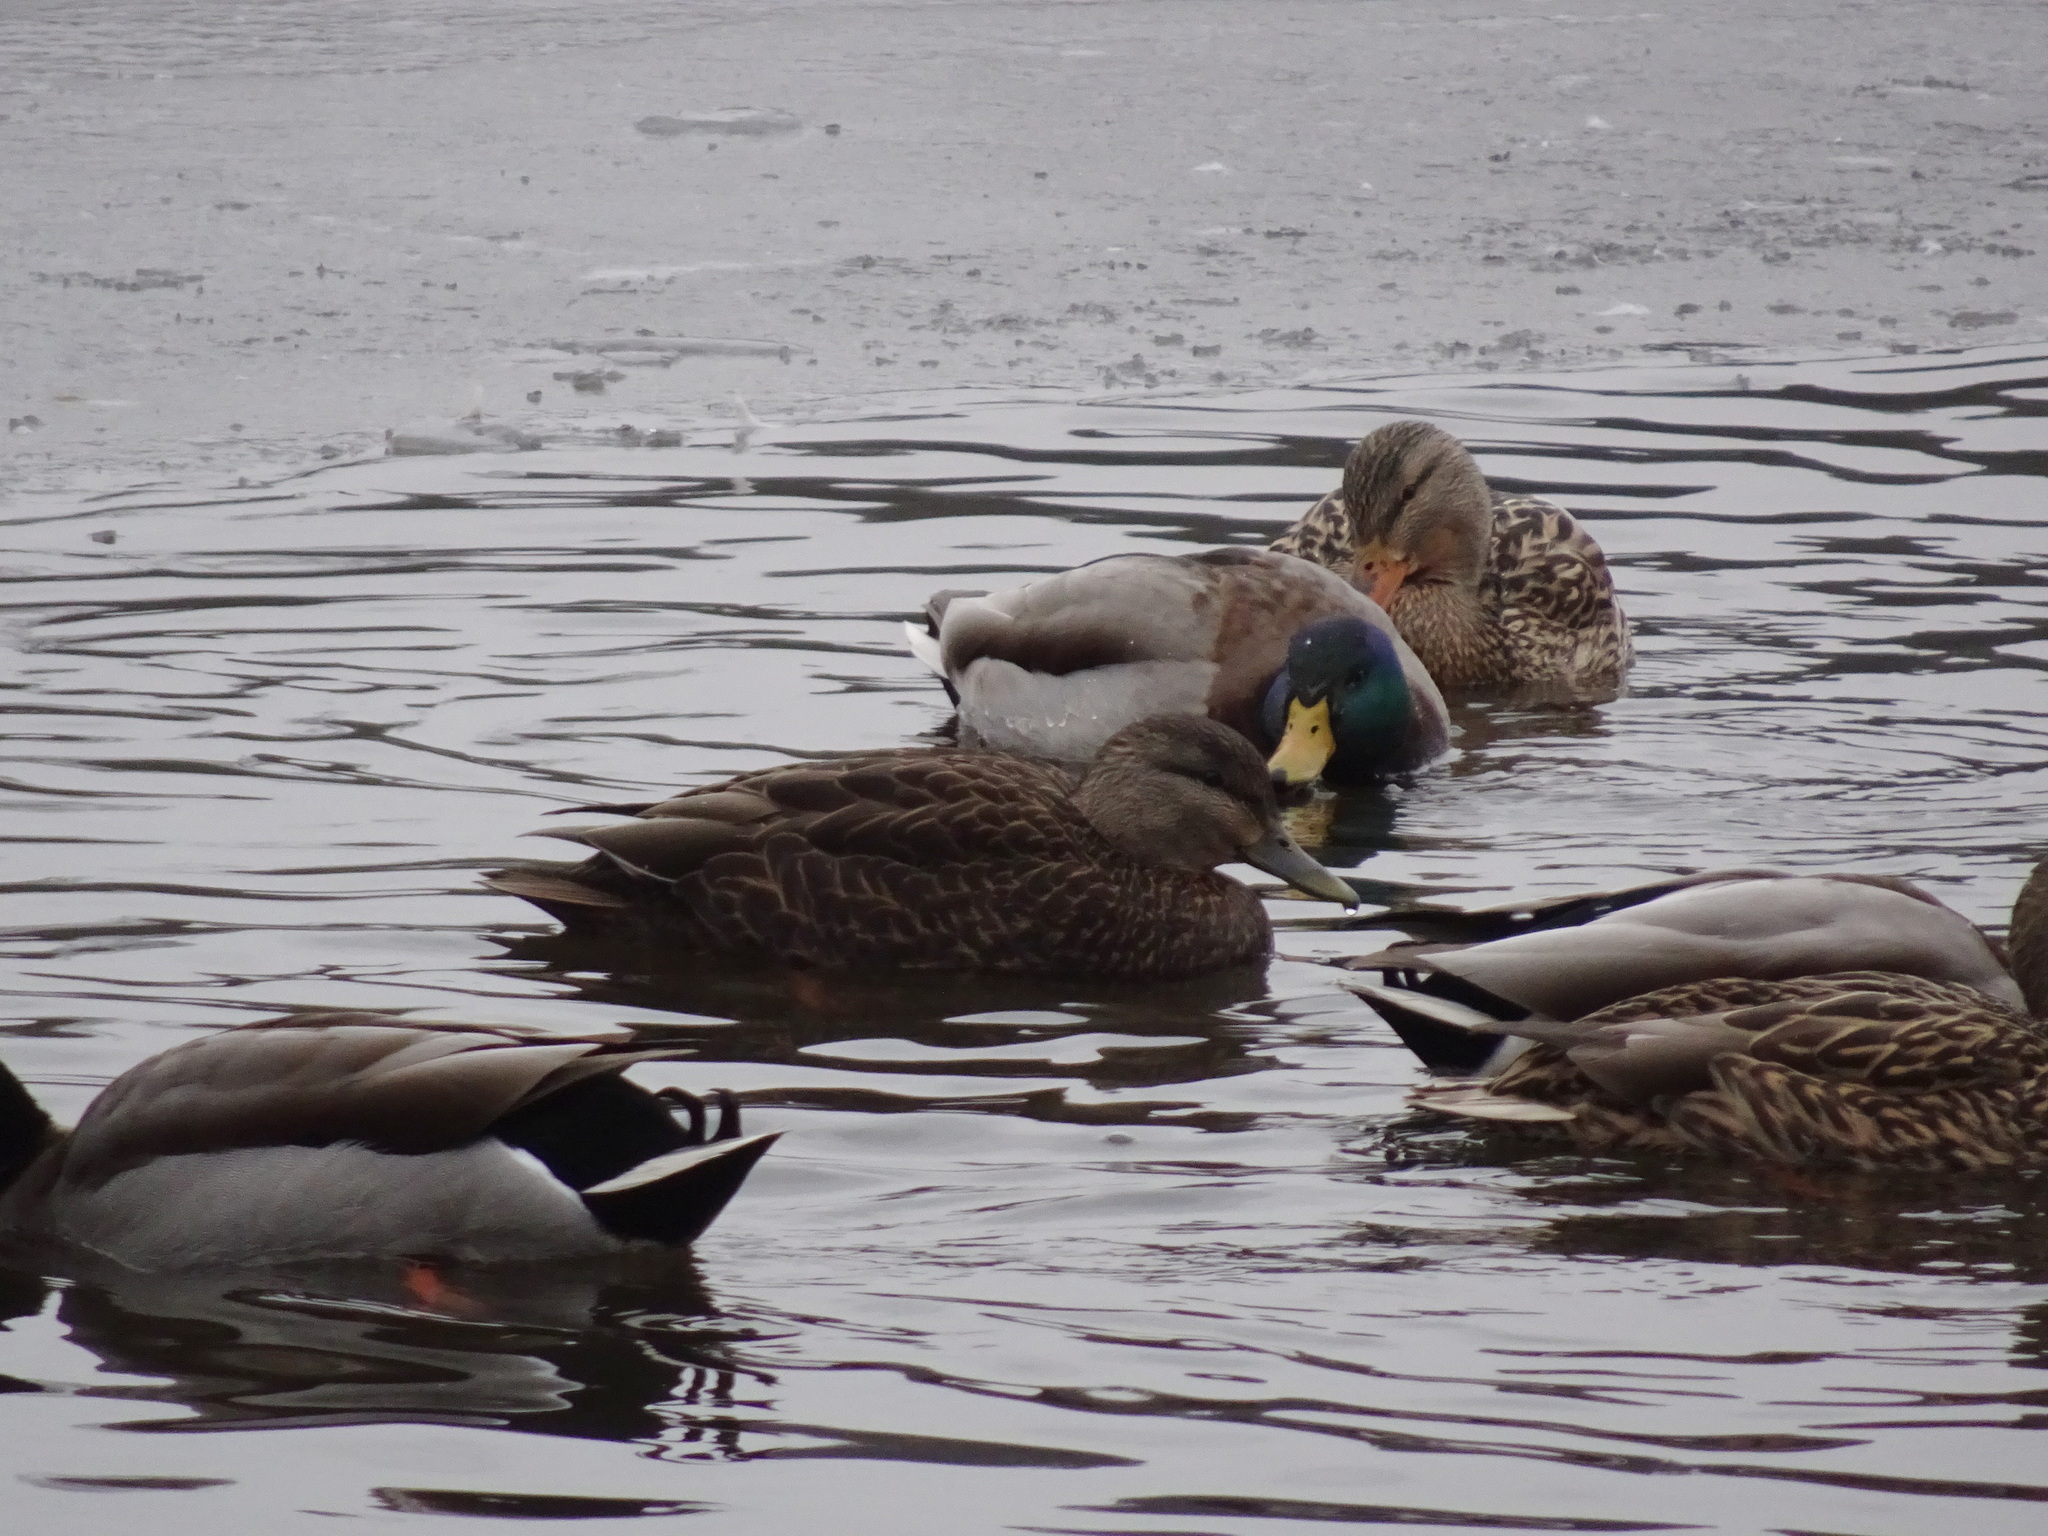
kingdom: Animalia
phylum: Chordata
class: Aves
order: Anseriformes
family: Anatidae
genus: Anas
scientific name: Anas rubripes
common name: American black duck
